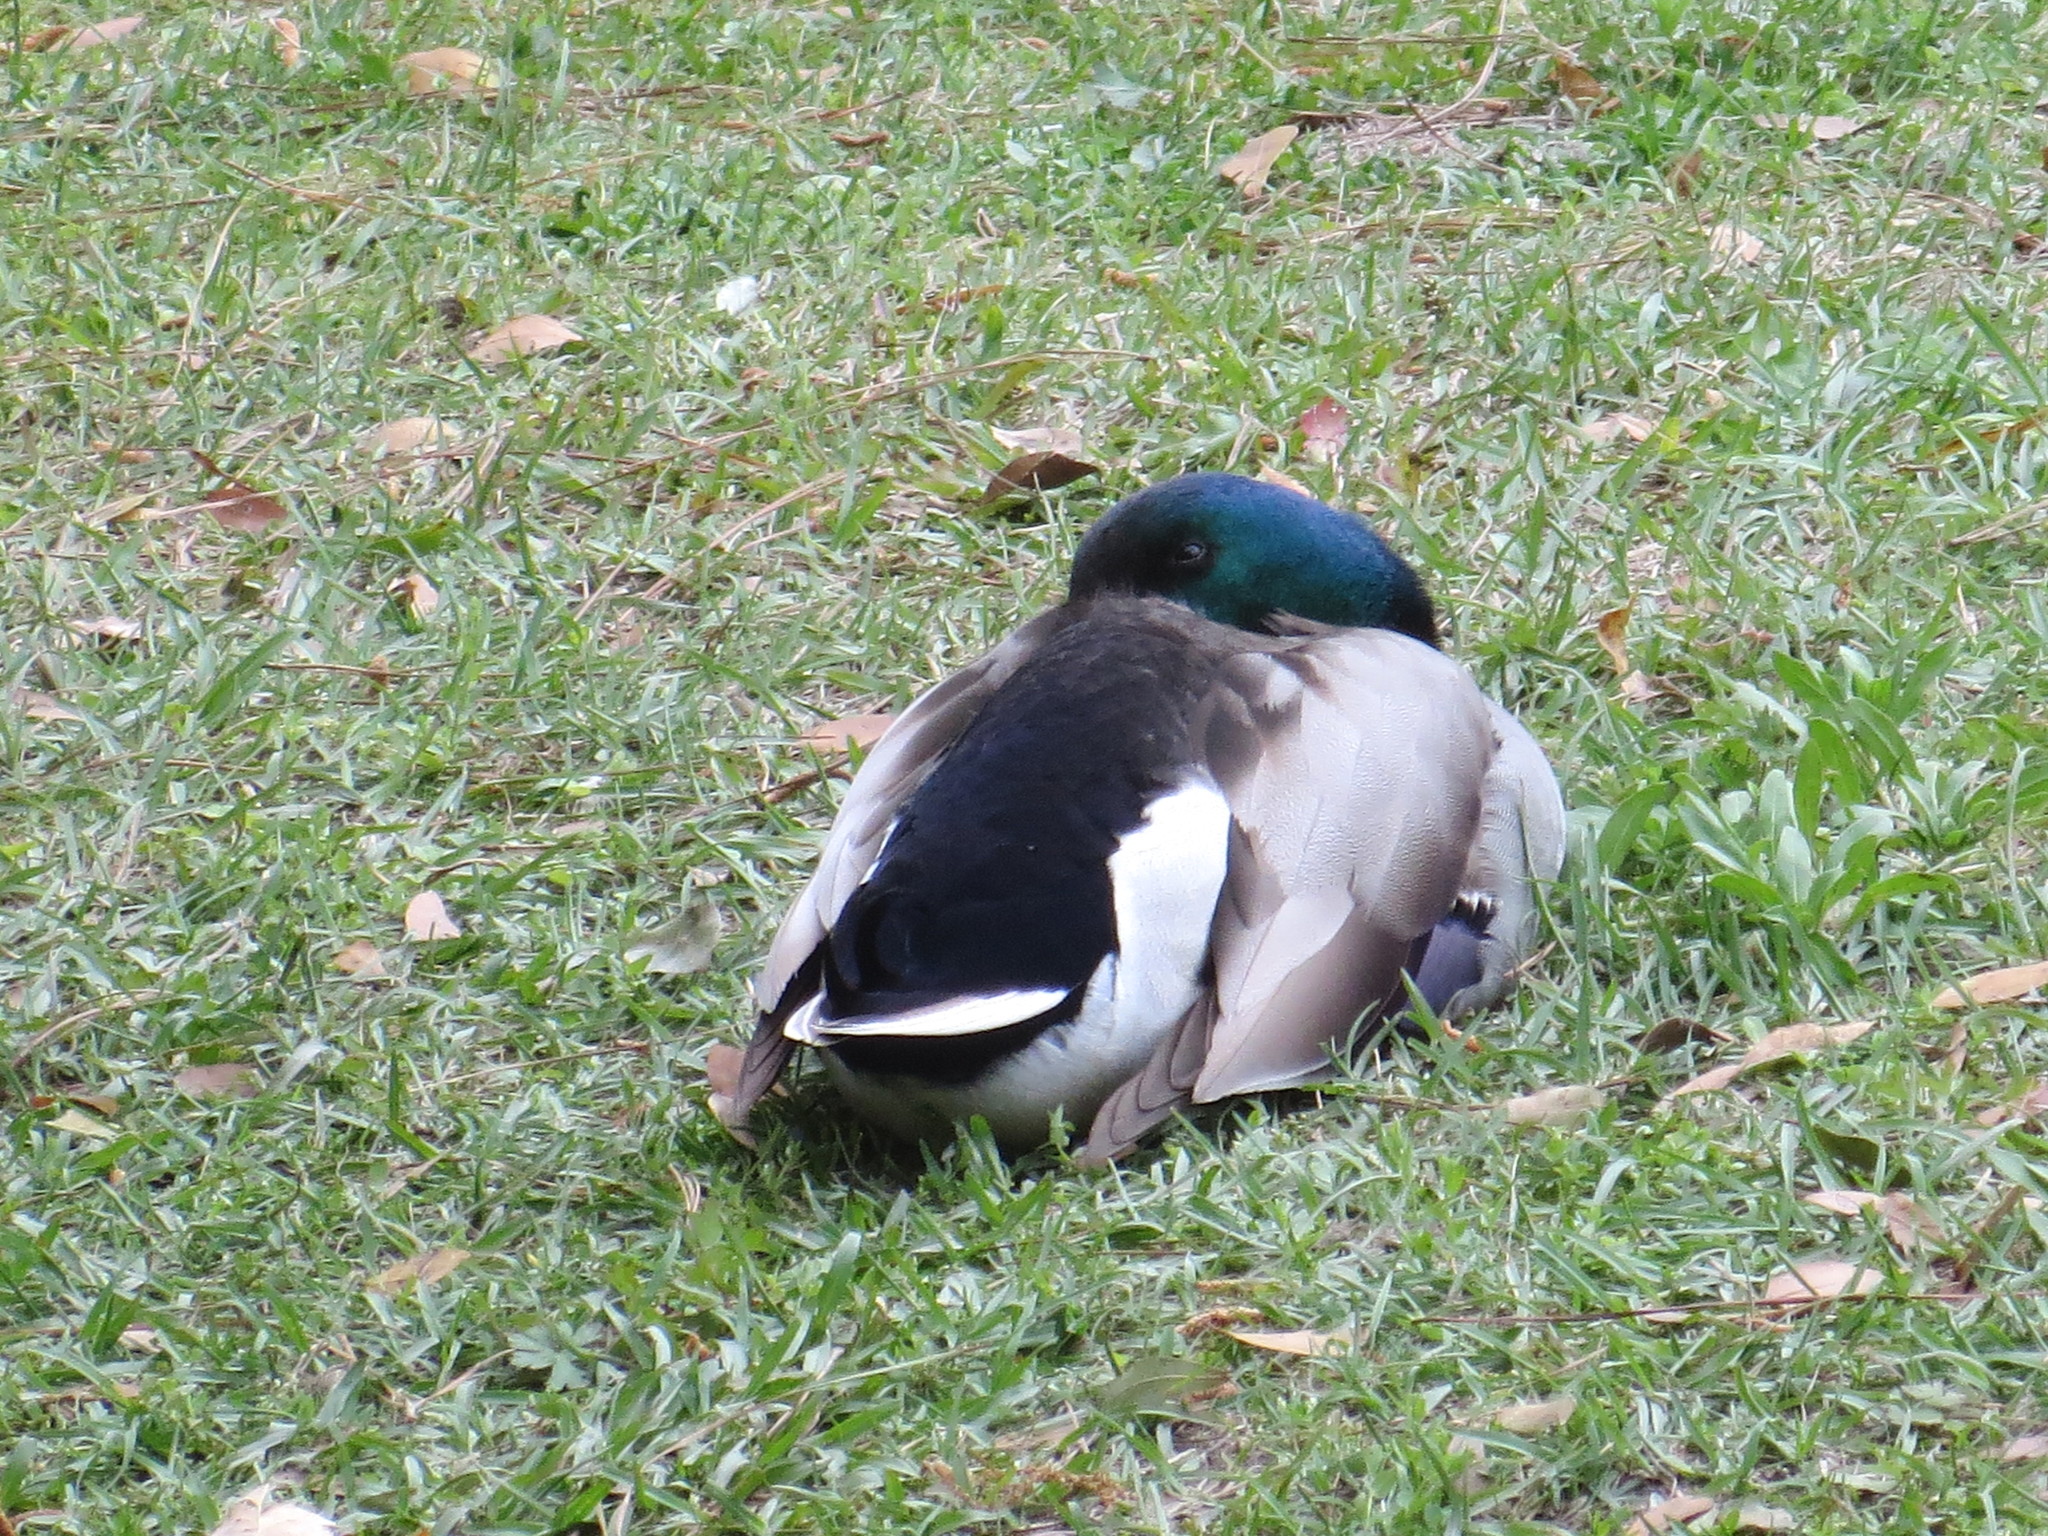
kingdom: Animalia
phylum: Chordata
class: Aves
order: Anseriformes
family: Anatidae
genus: Anas
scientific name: Anas platyrhynchos
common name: Mallard
